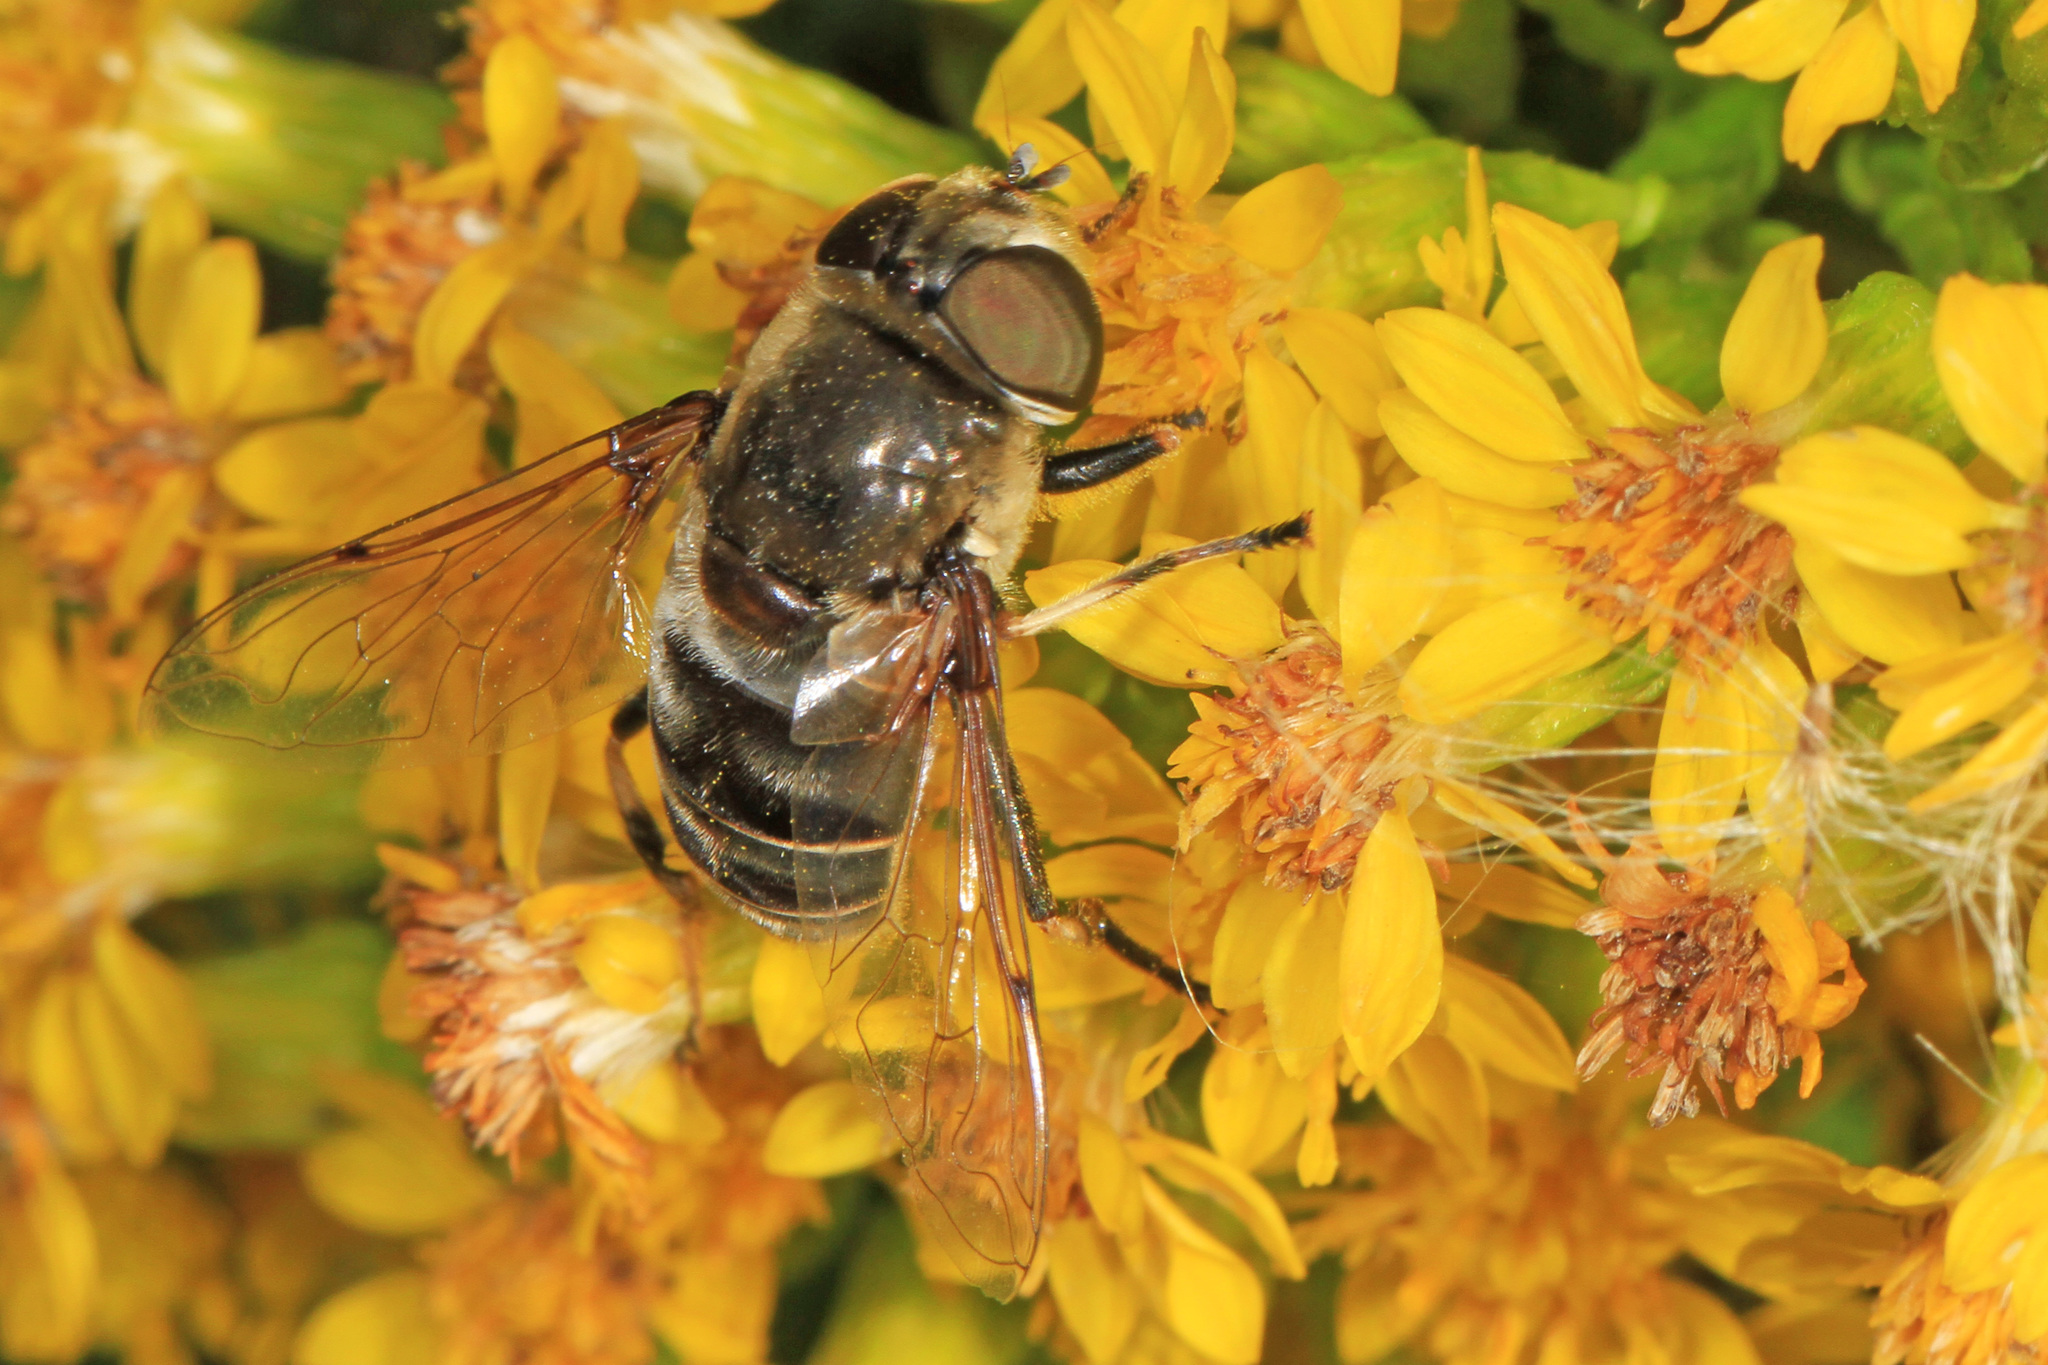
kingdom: Animalia
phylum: Arthropoda
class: Insecta
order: Diptera
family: Syrphidae
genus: Eristalis
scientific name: Eristalis dimidiata
